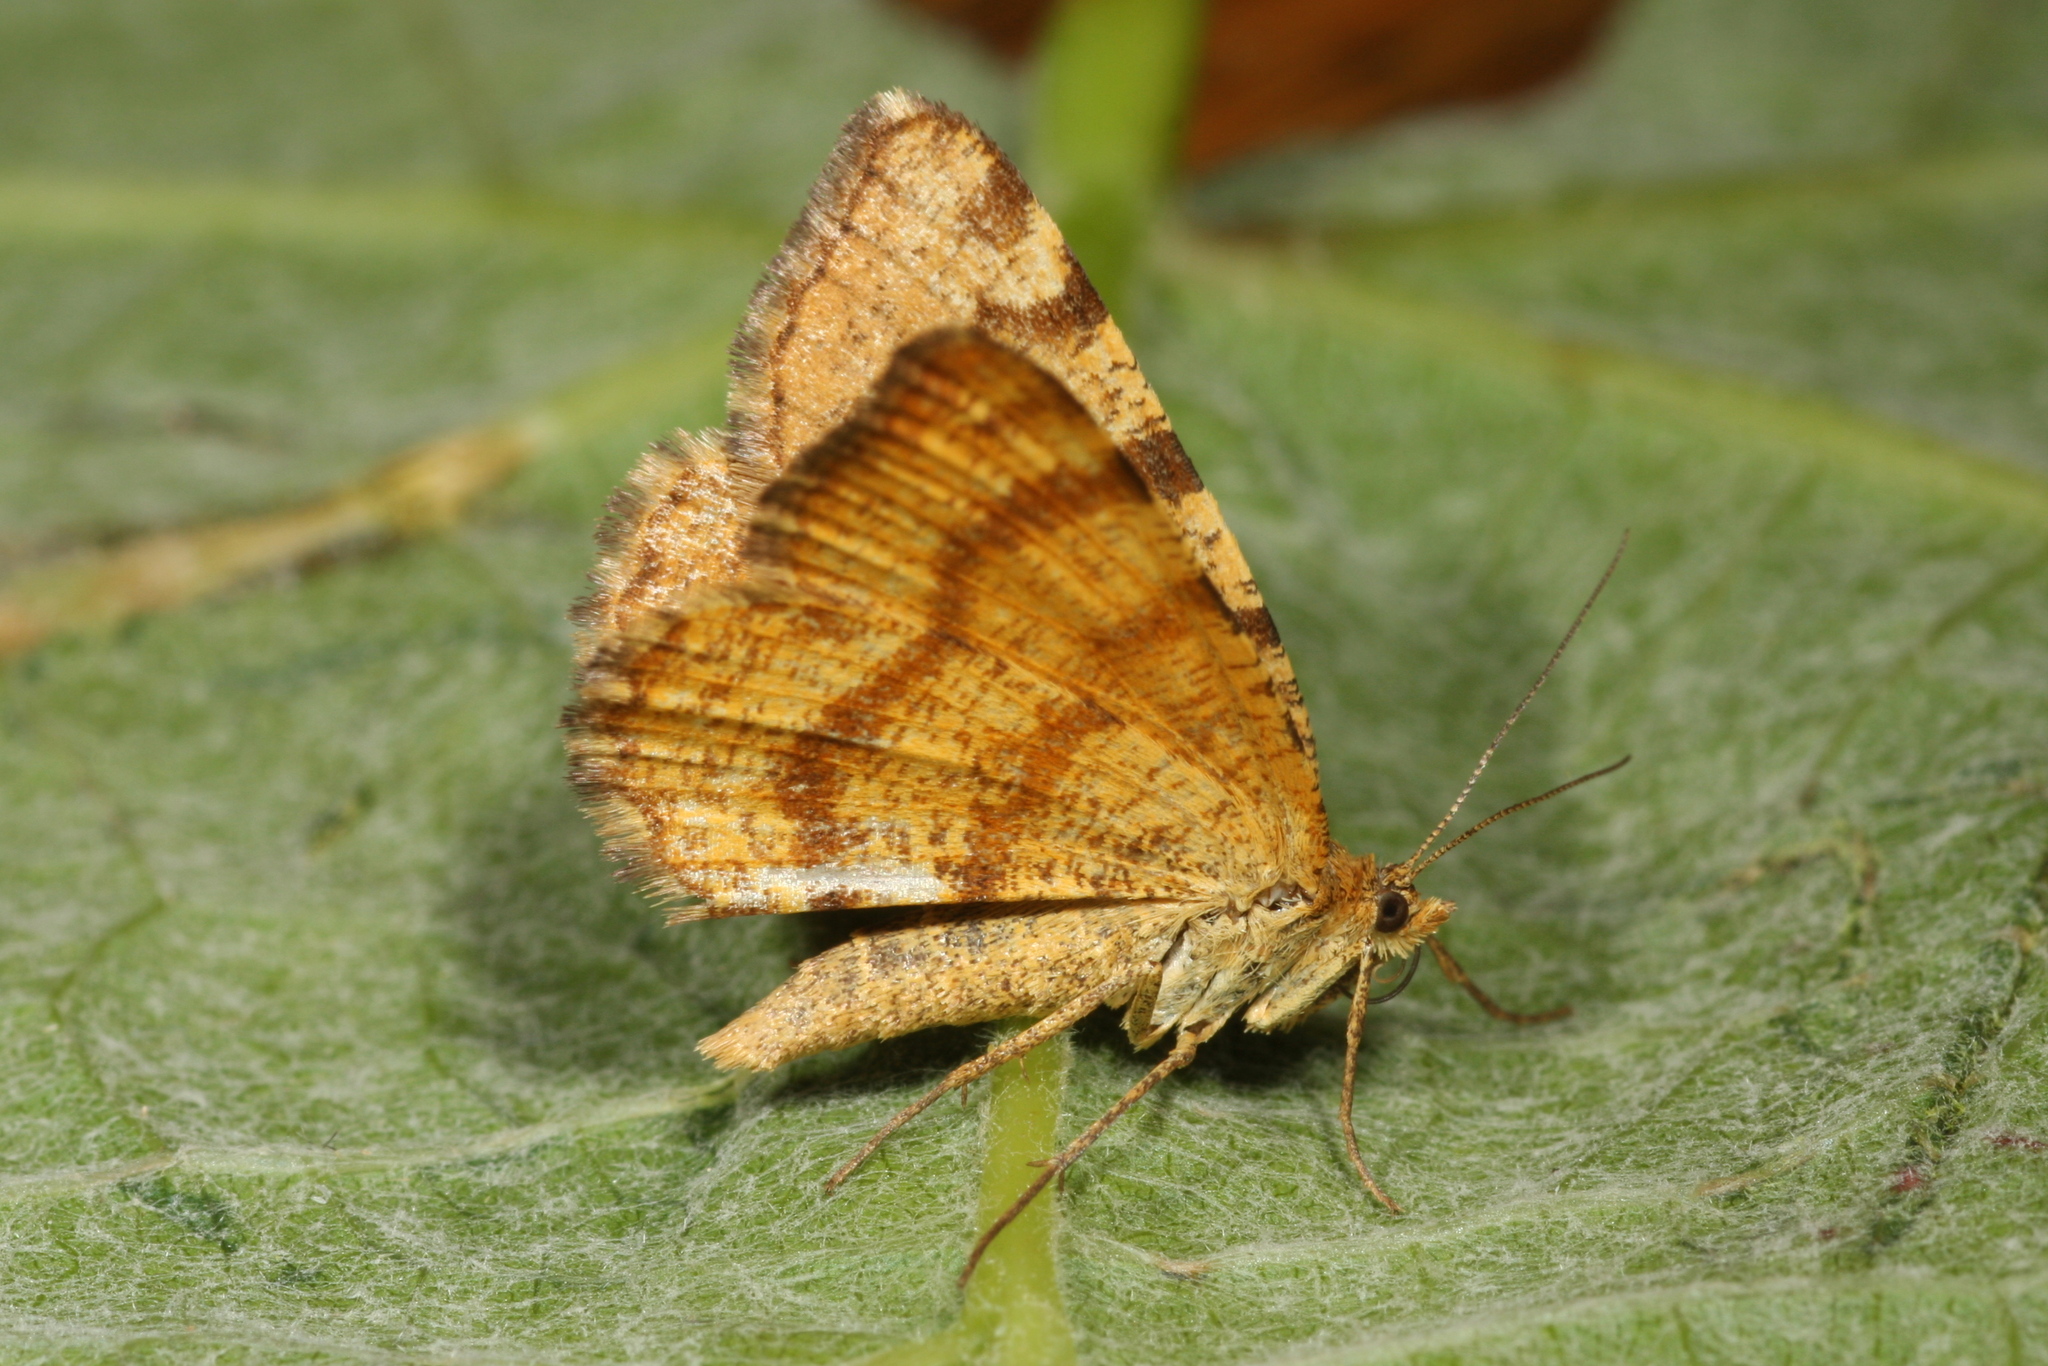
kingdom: Animalia
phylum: Arthropoda
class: Insecta
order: Lepidoptera
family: Geometridae
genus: Macaria
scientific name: Macaria brunneata
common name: Rannoch looper
